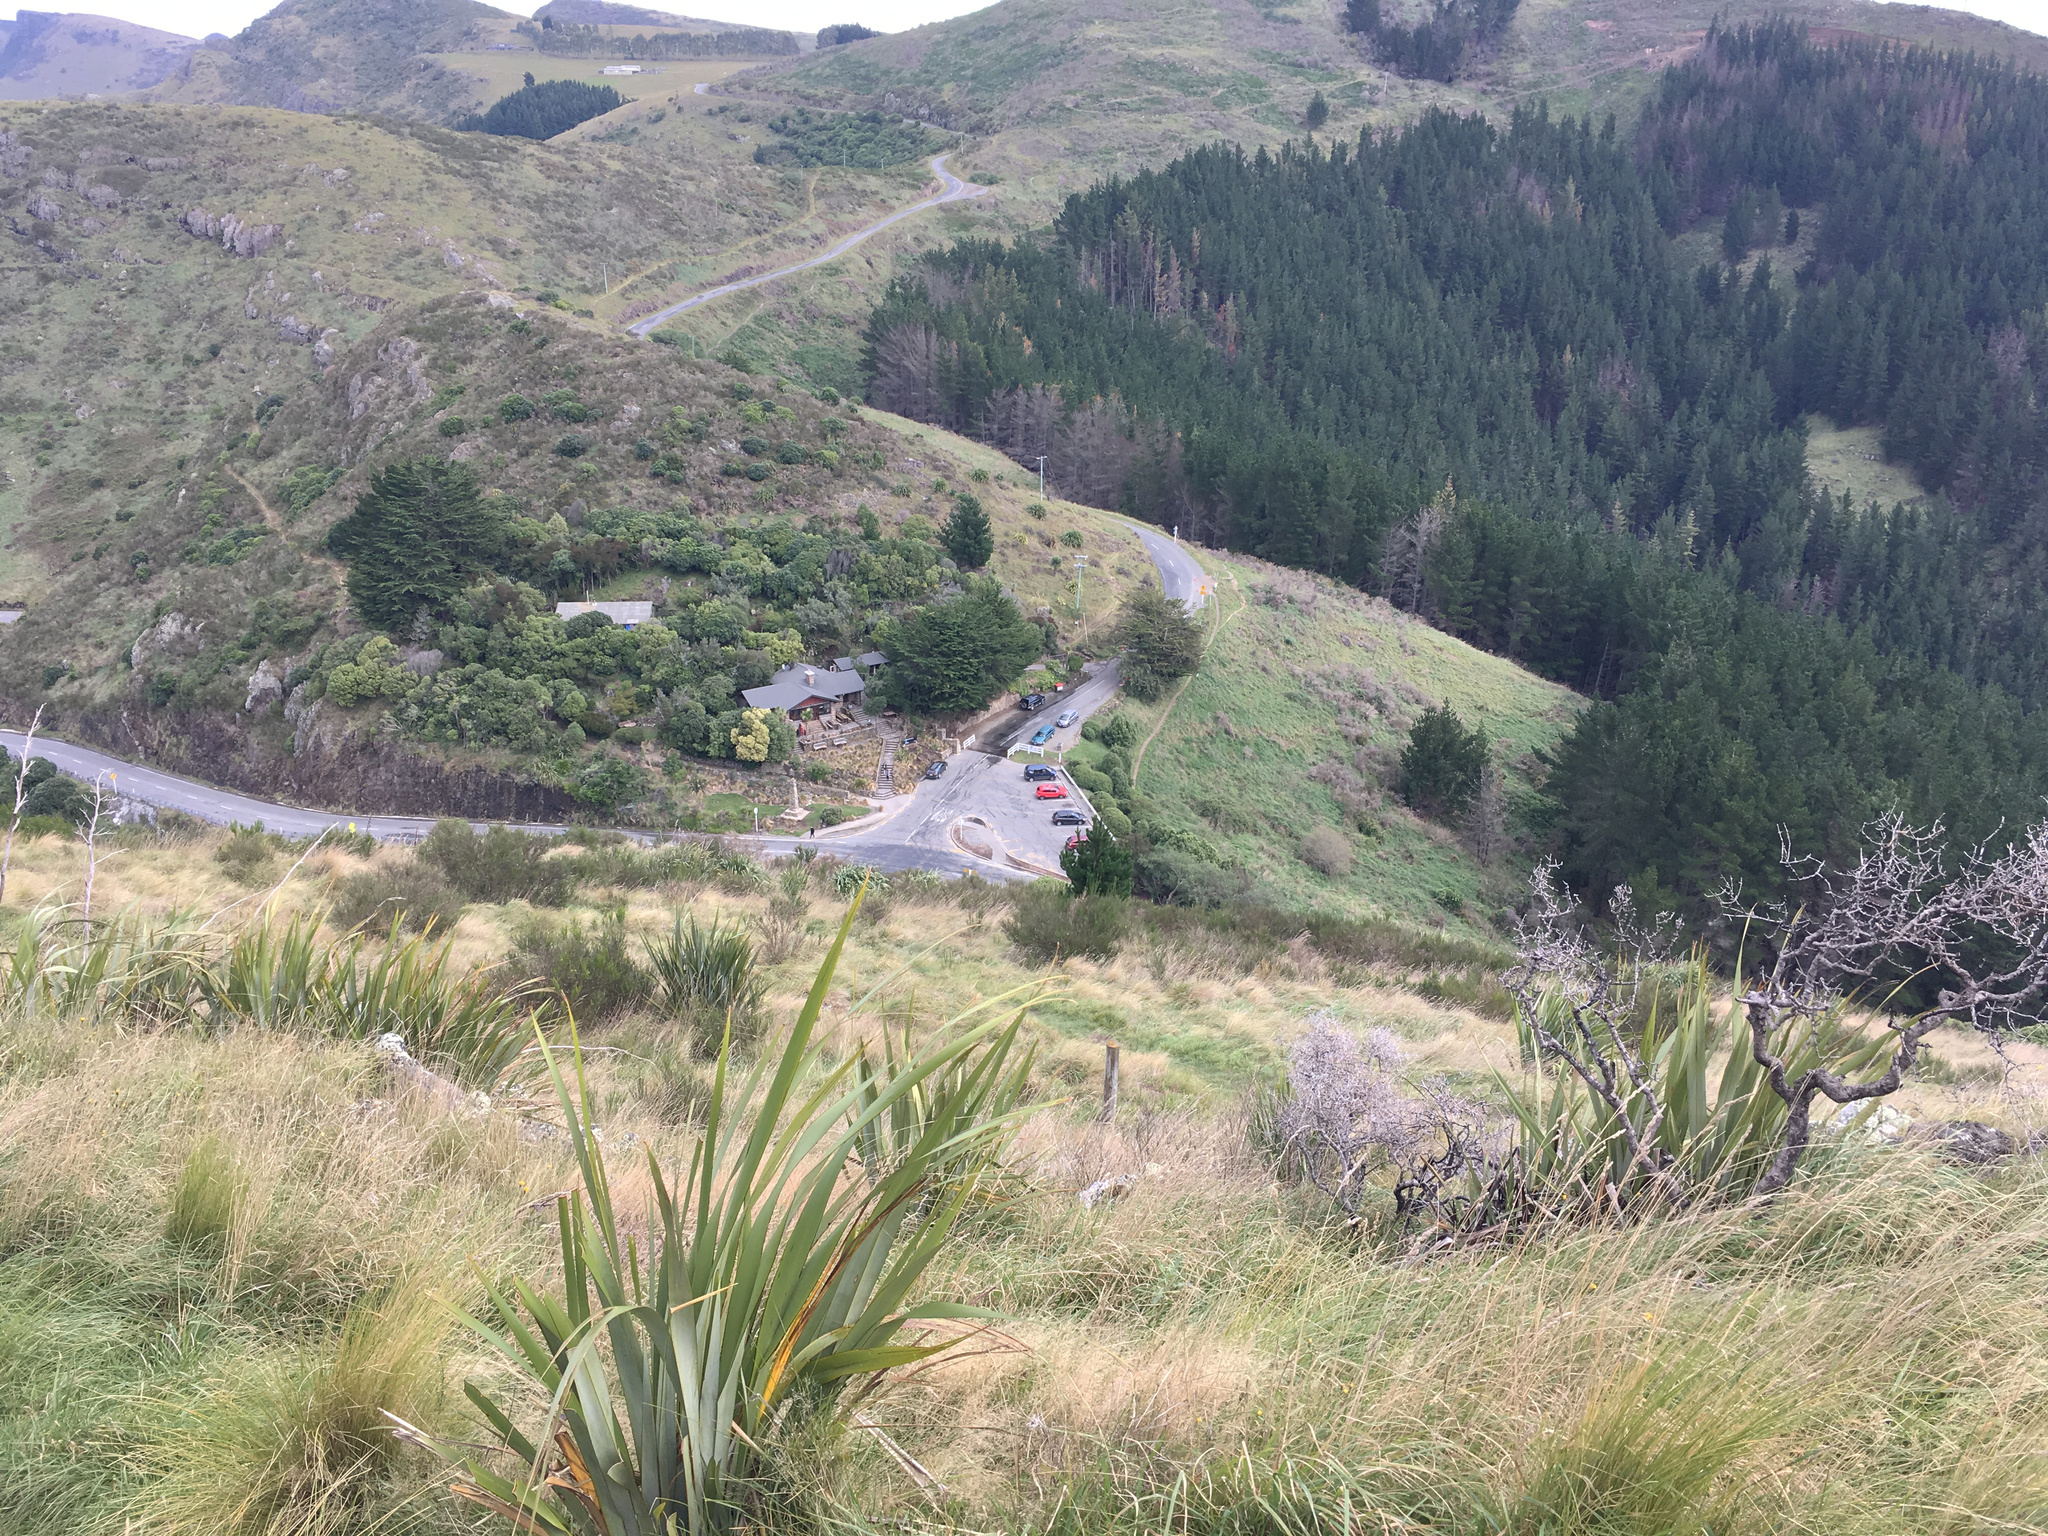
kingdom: Plantae
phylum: Tracheophyta
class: Liliopsida
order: Asparagales
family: Asphodelaceae
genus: Phormium
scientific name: Phormium tenax
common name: New zealand flax
